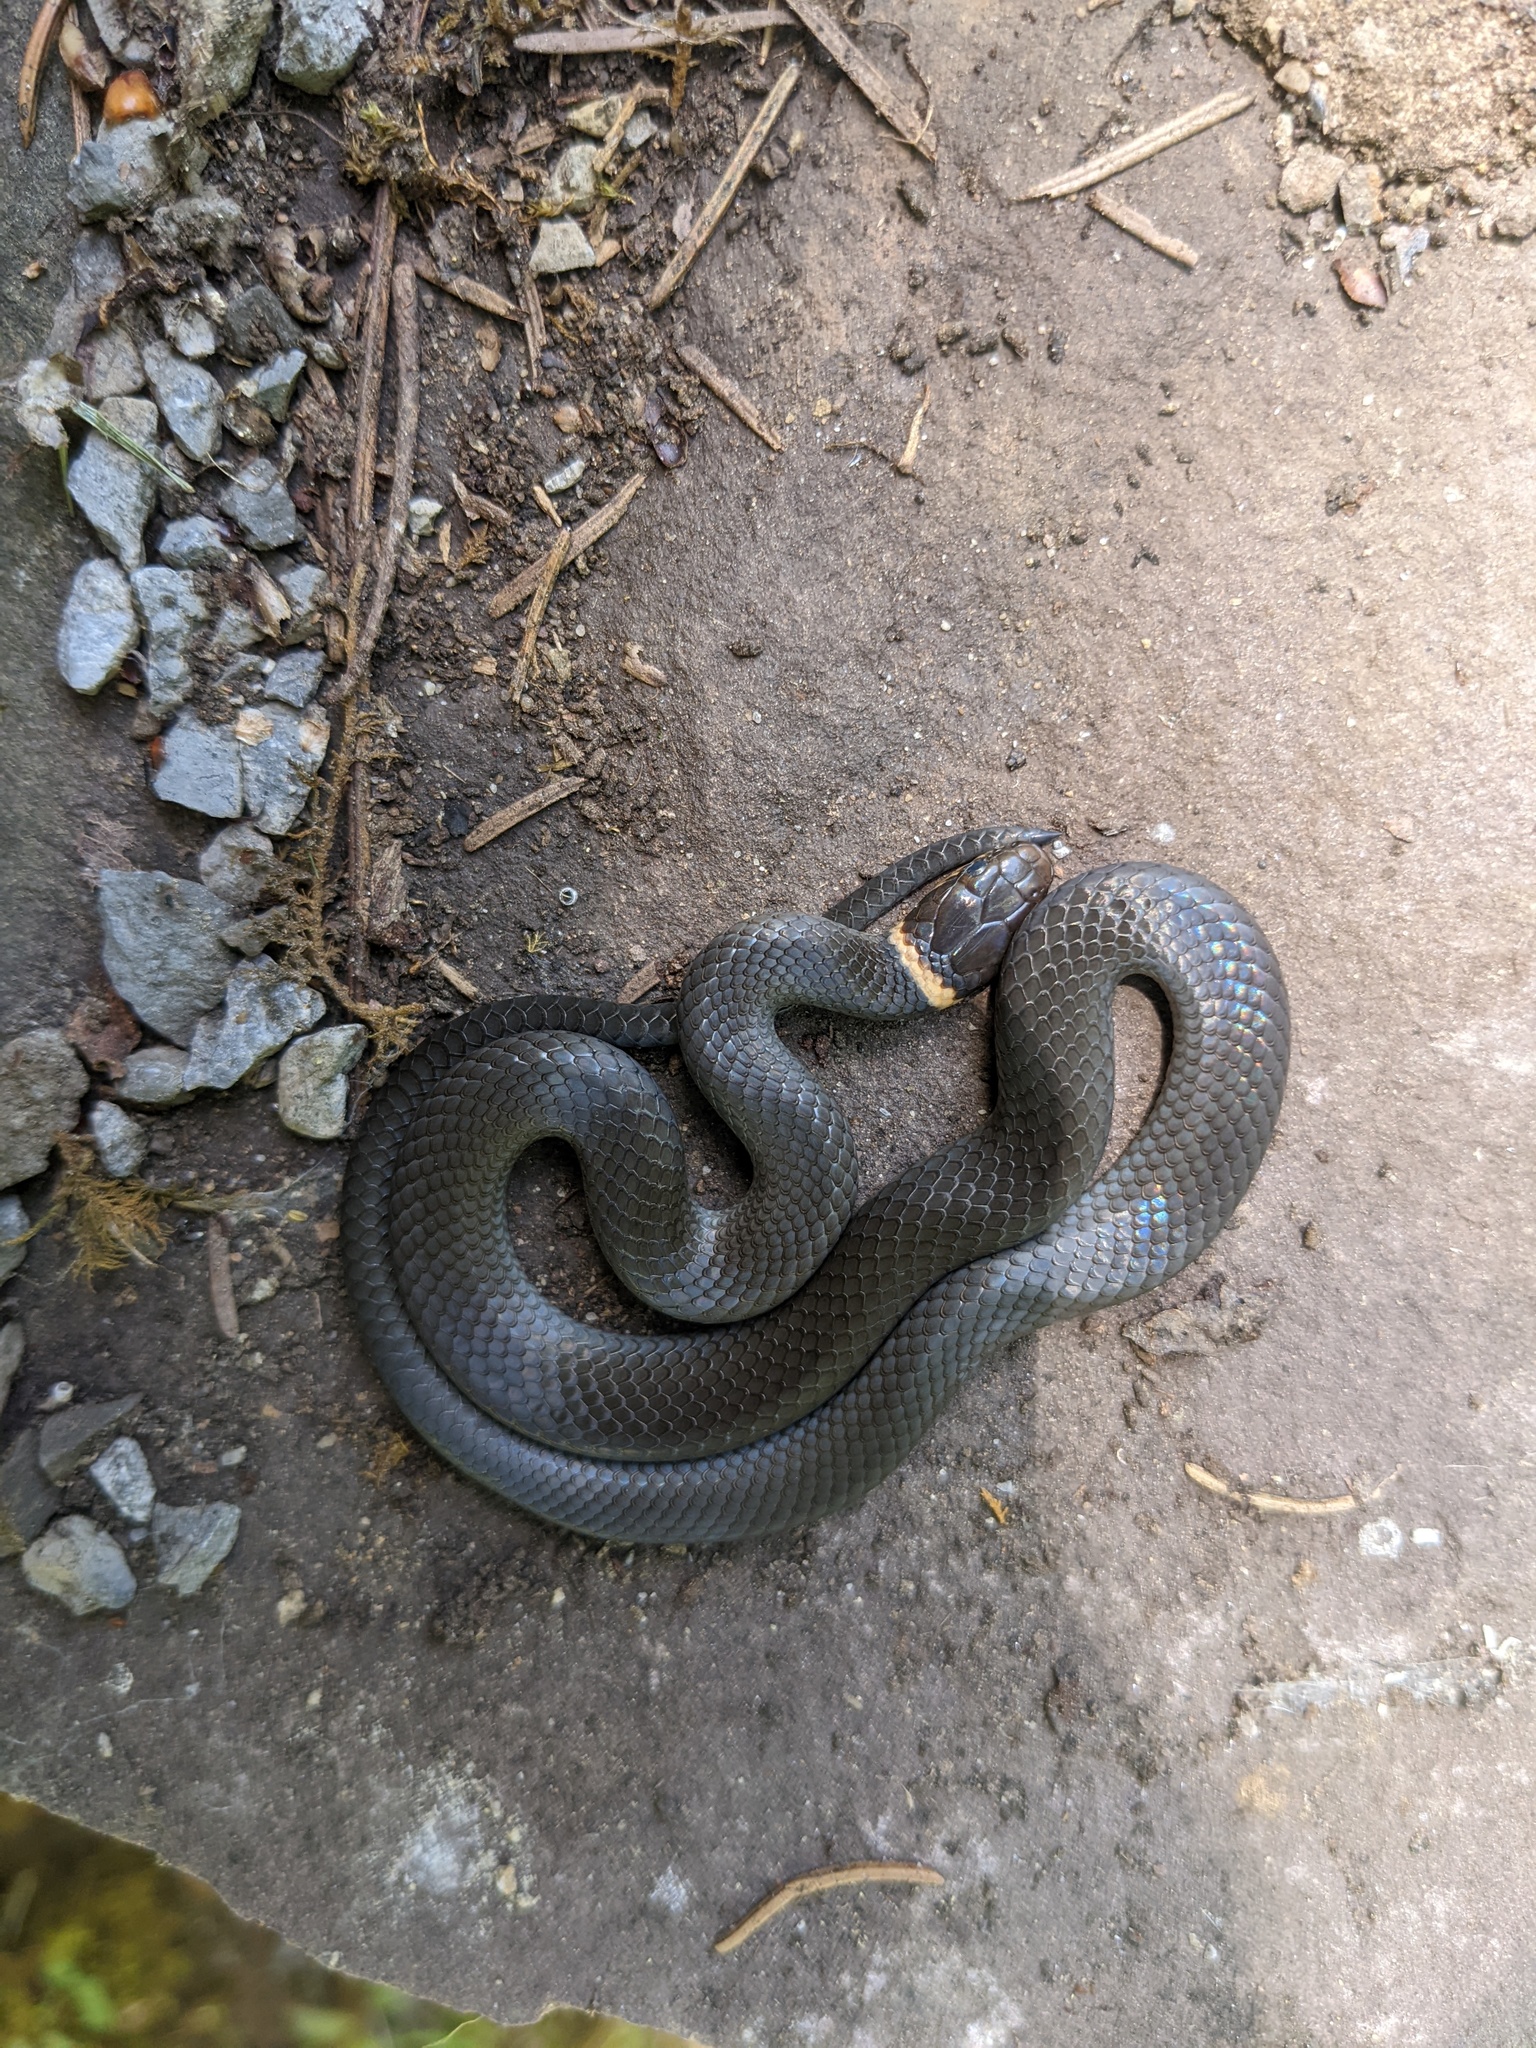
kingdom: Animalia
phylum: Chordata
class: Squamata
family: Colubridae
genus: Diadophis
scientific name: Diadophis punctatus
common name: Ringneck snake
